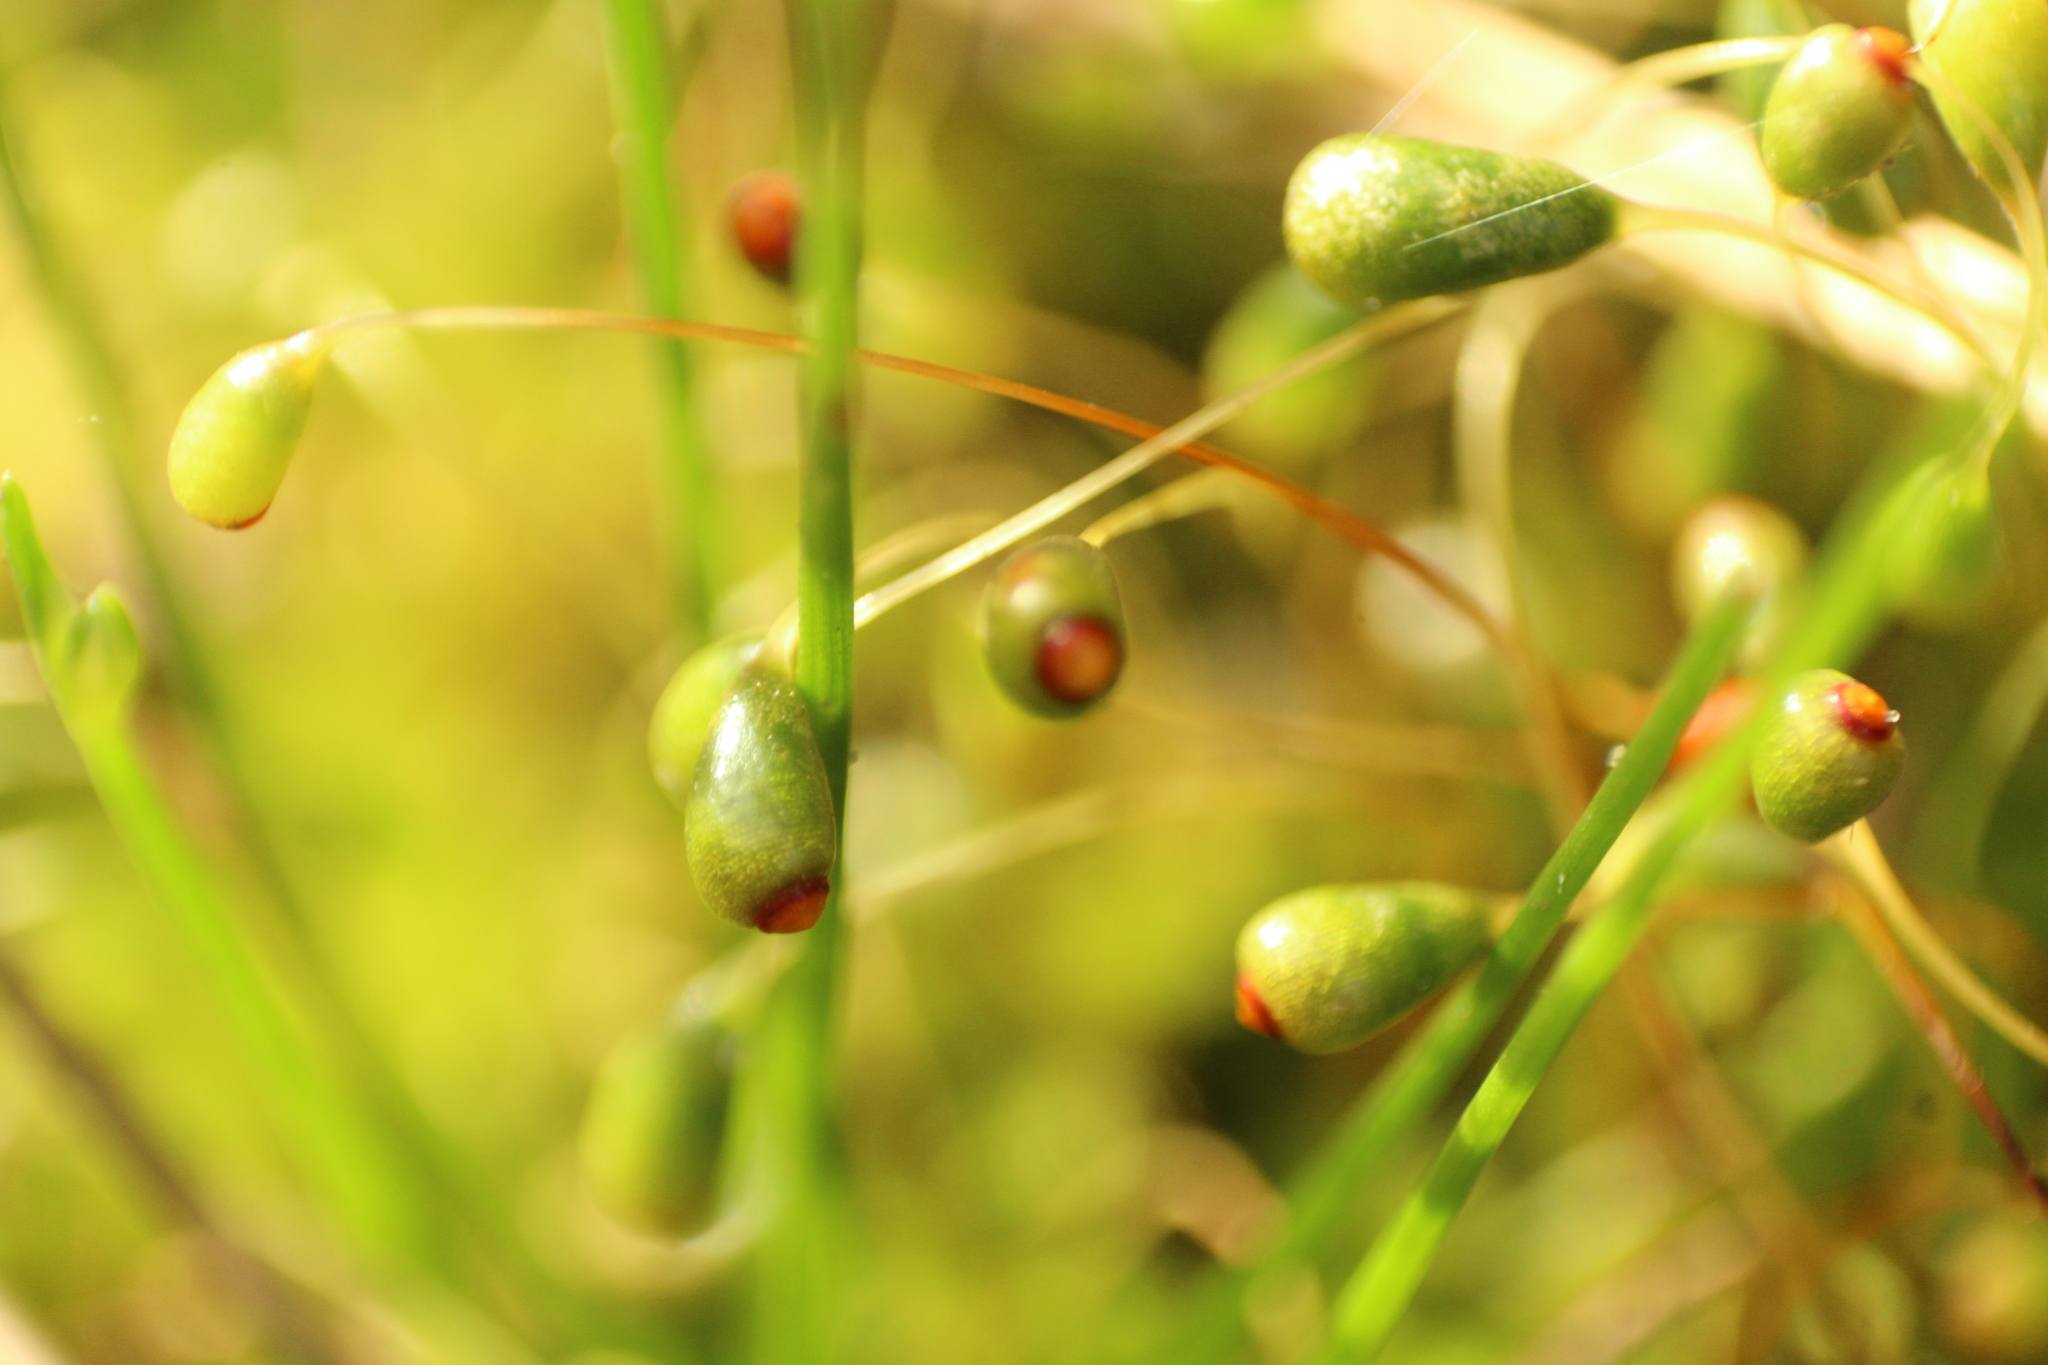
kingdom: Plantae
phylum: Bryophyta
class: Bryopsida
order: Funariales
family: Funariaceae
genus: Funaria
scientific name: Funaria hygrometrica
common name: Common cord moss
